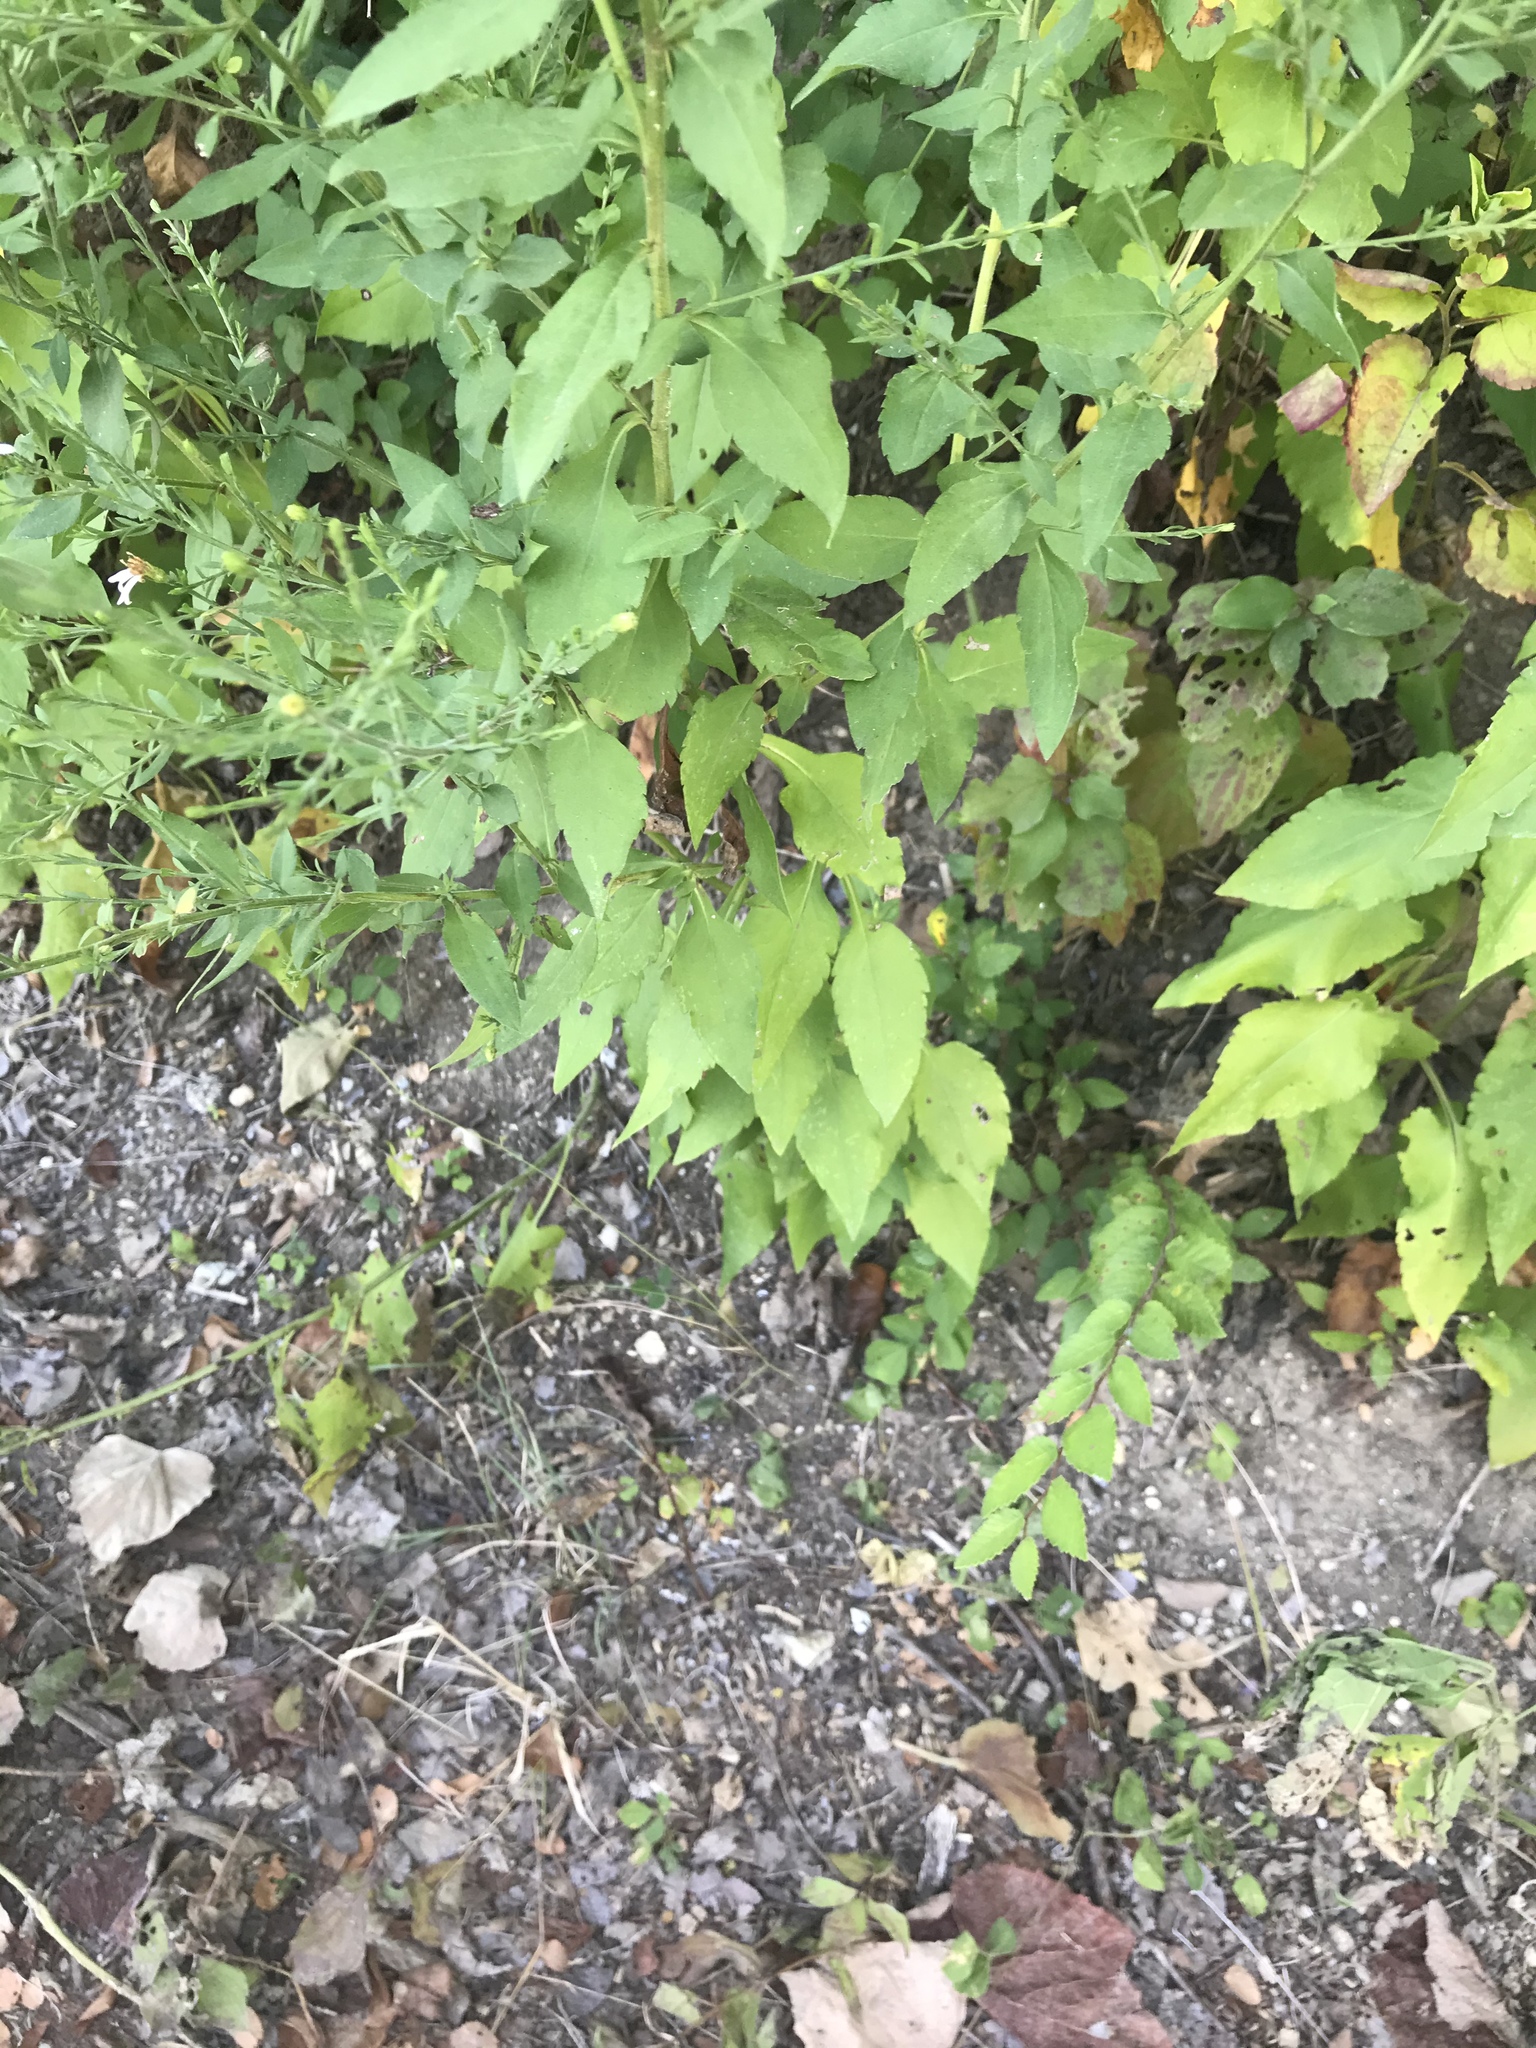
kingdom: Plantae
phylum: Tracheophyta
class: Magnoliopsida
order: Asterales
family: Asteraceae
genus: Symphyotrichum
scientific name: Symphyotrichum drummondii
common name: Drummond's aster
